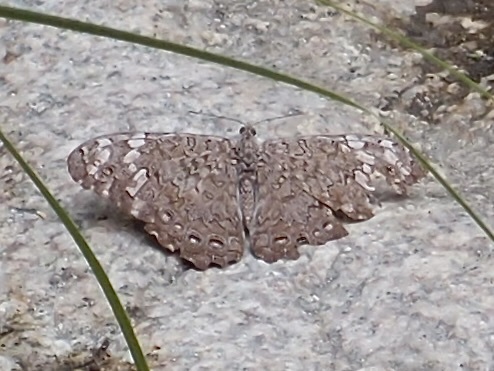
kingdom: Animalia
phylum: Arthropoda
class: Insecta
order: Lepidoptera
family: Nymphalidae
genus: Hamadryas
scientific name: Hamadryas februa
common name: Gray cracker
